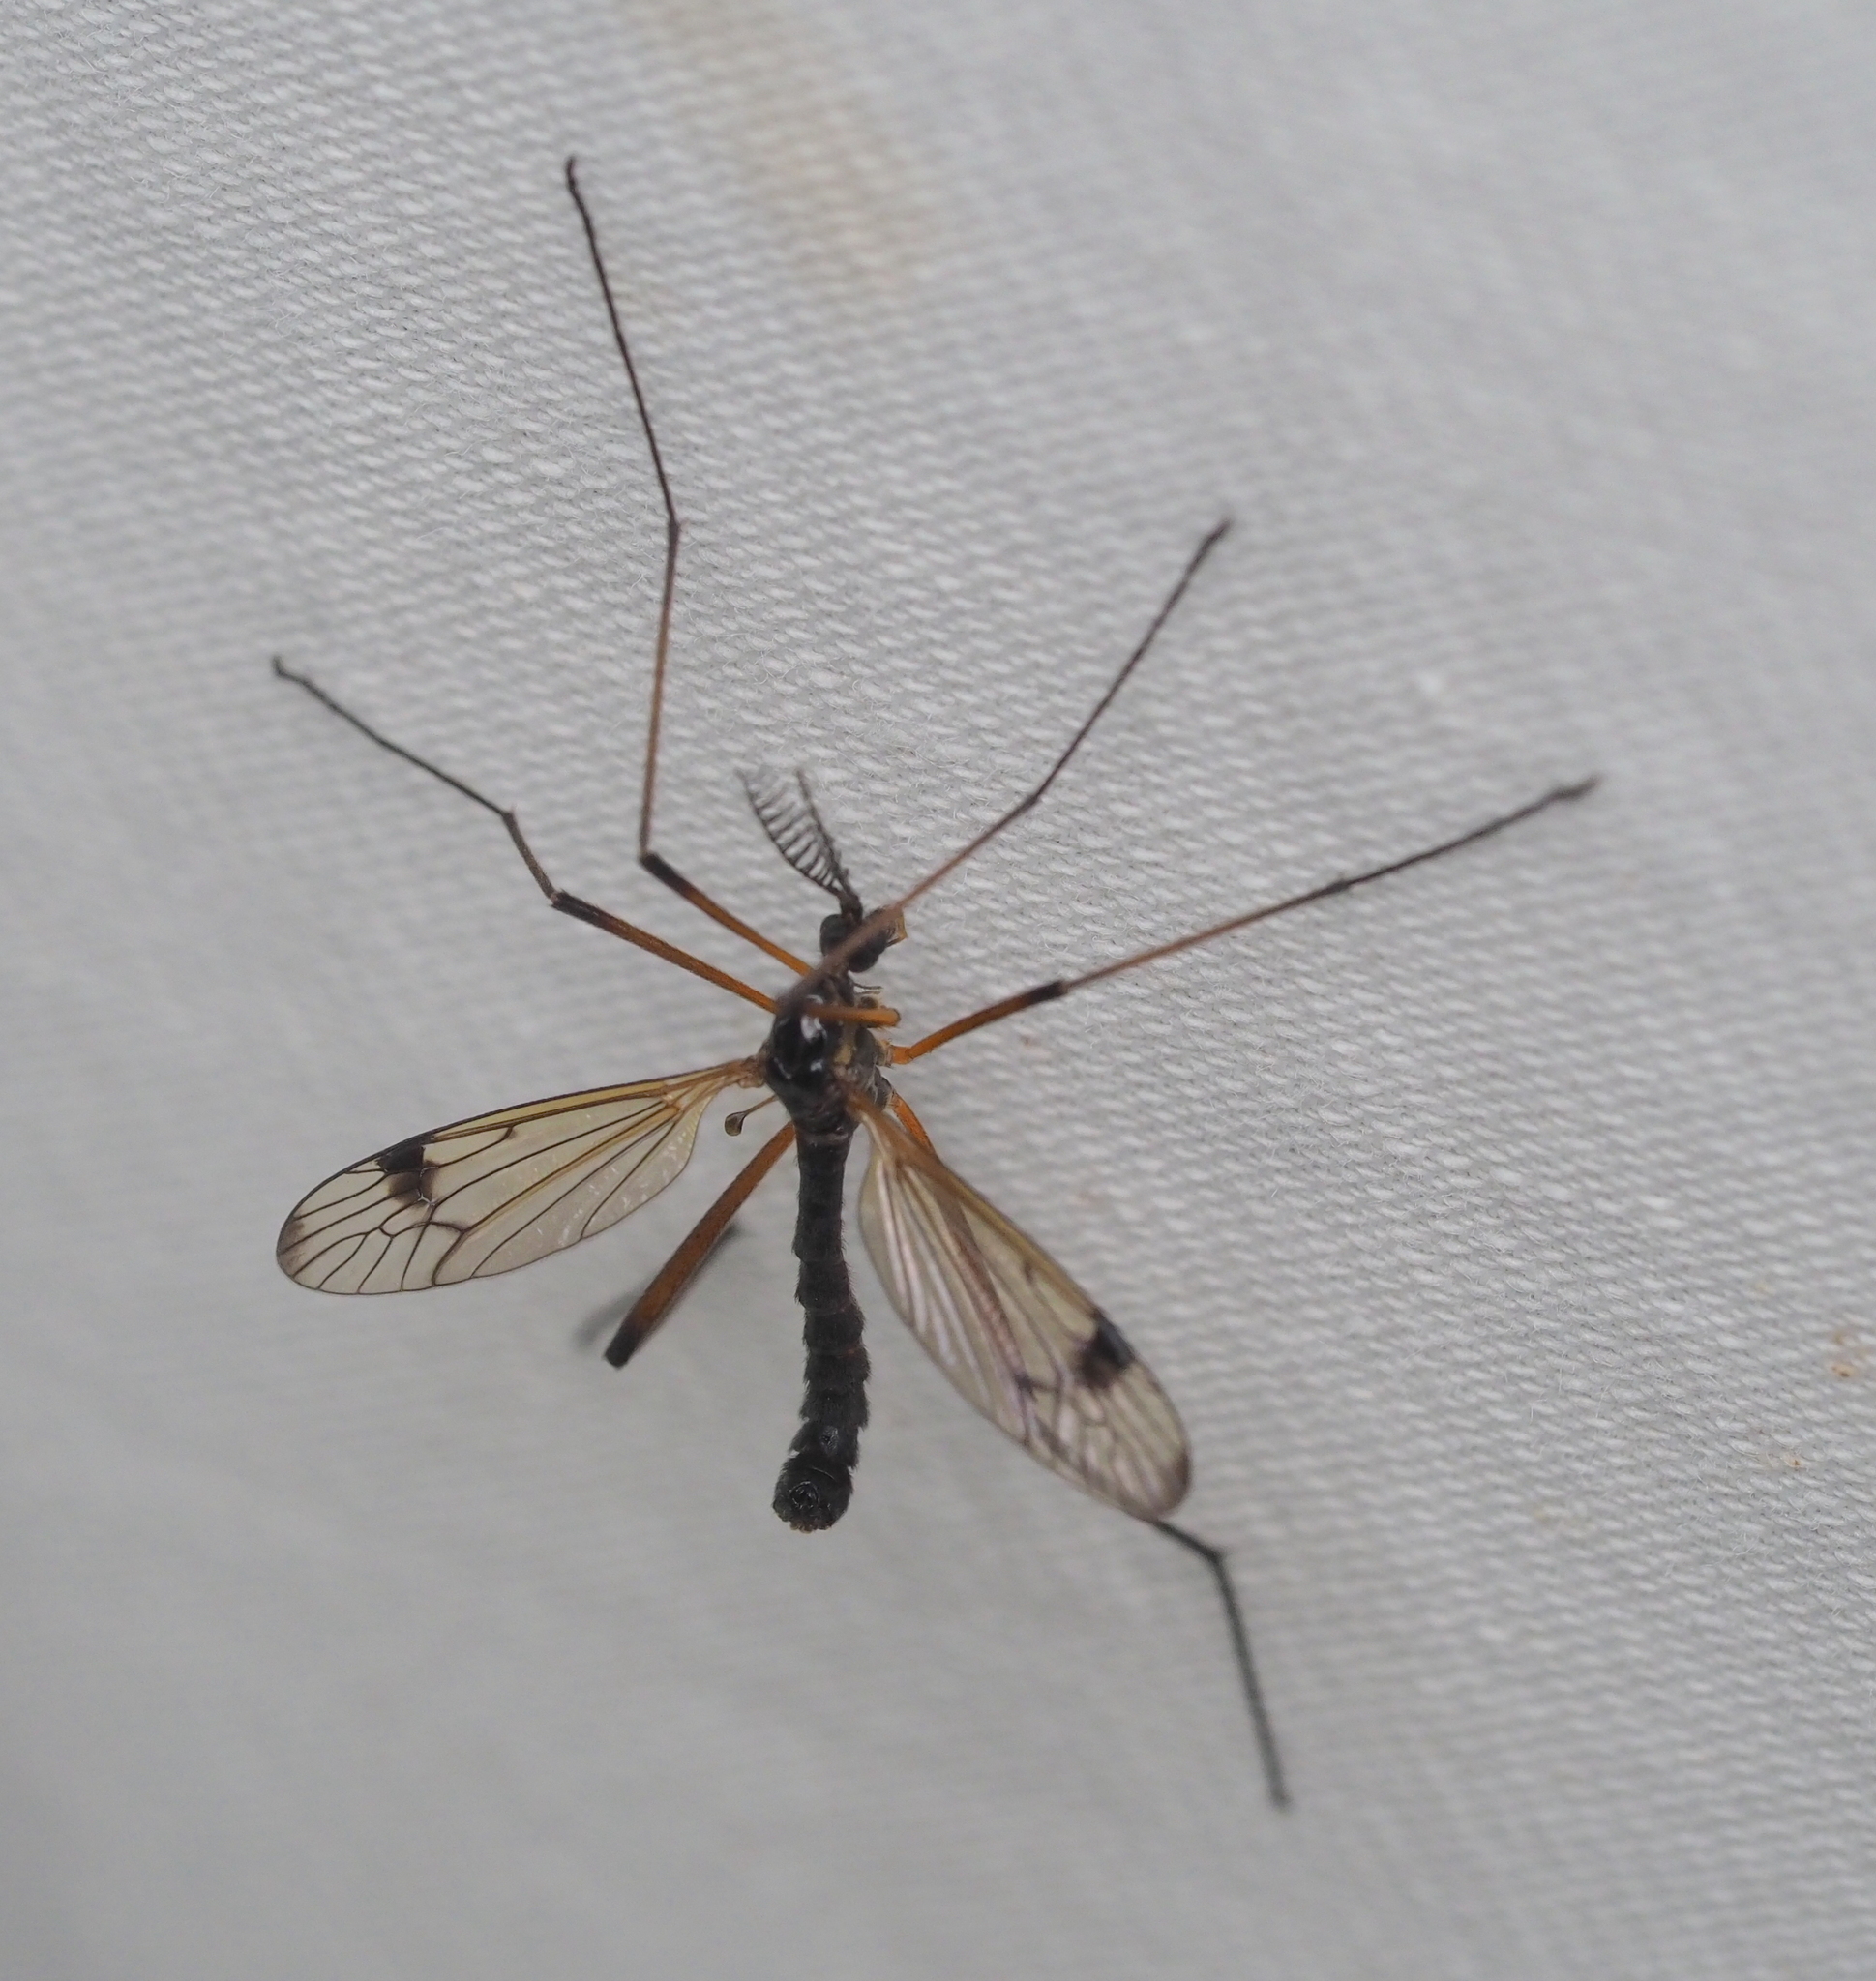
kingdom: Animalia
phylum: Arthropoda
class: Insecta
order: Diptera
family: Tipulidae
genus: Dictenidia
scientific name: Dictenidia bimaculata
